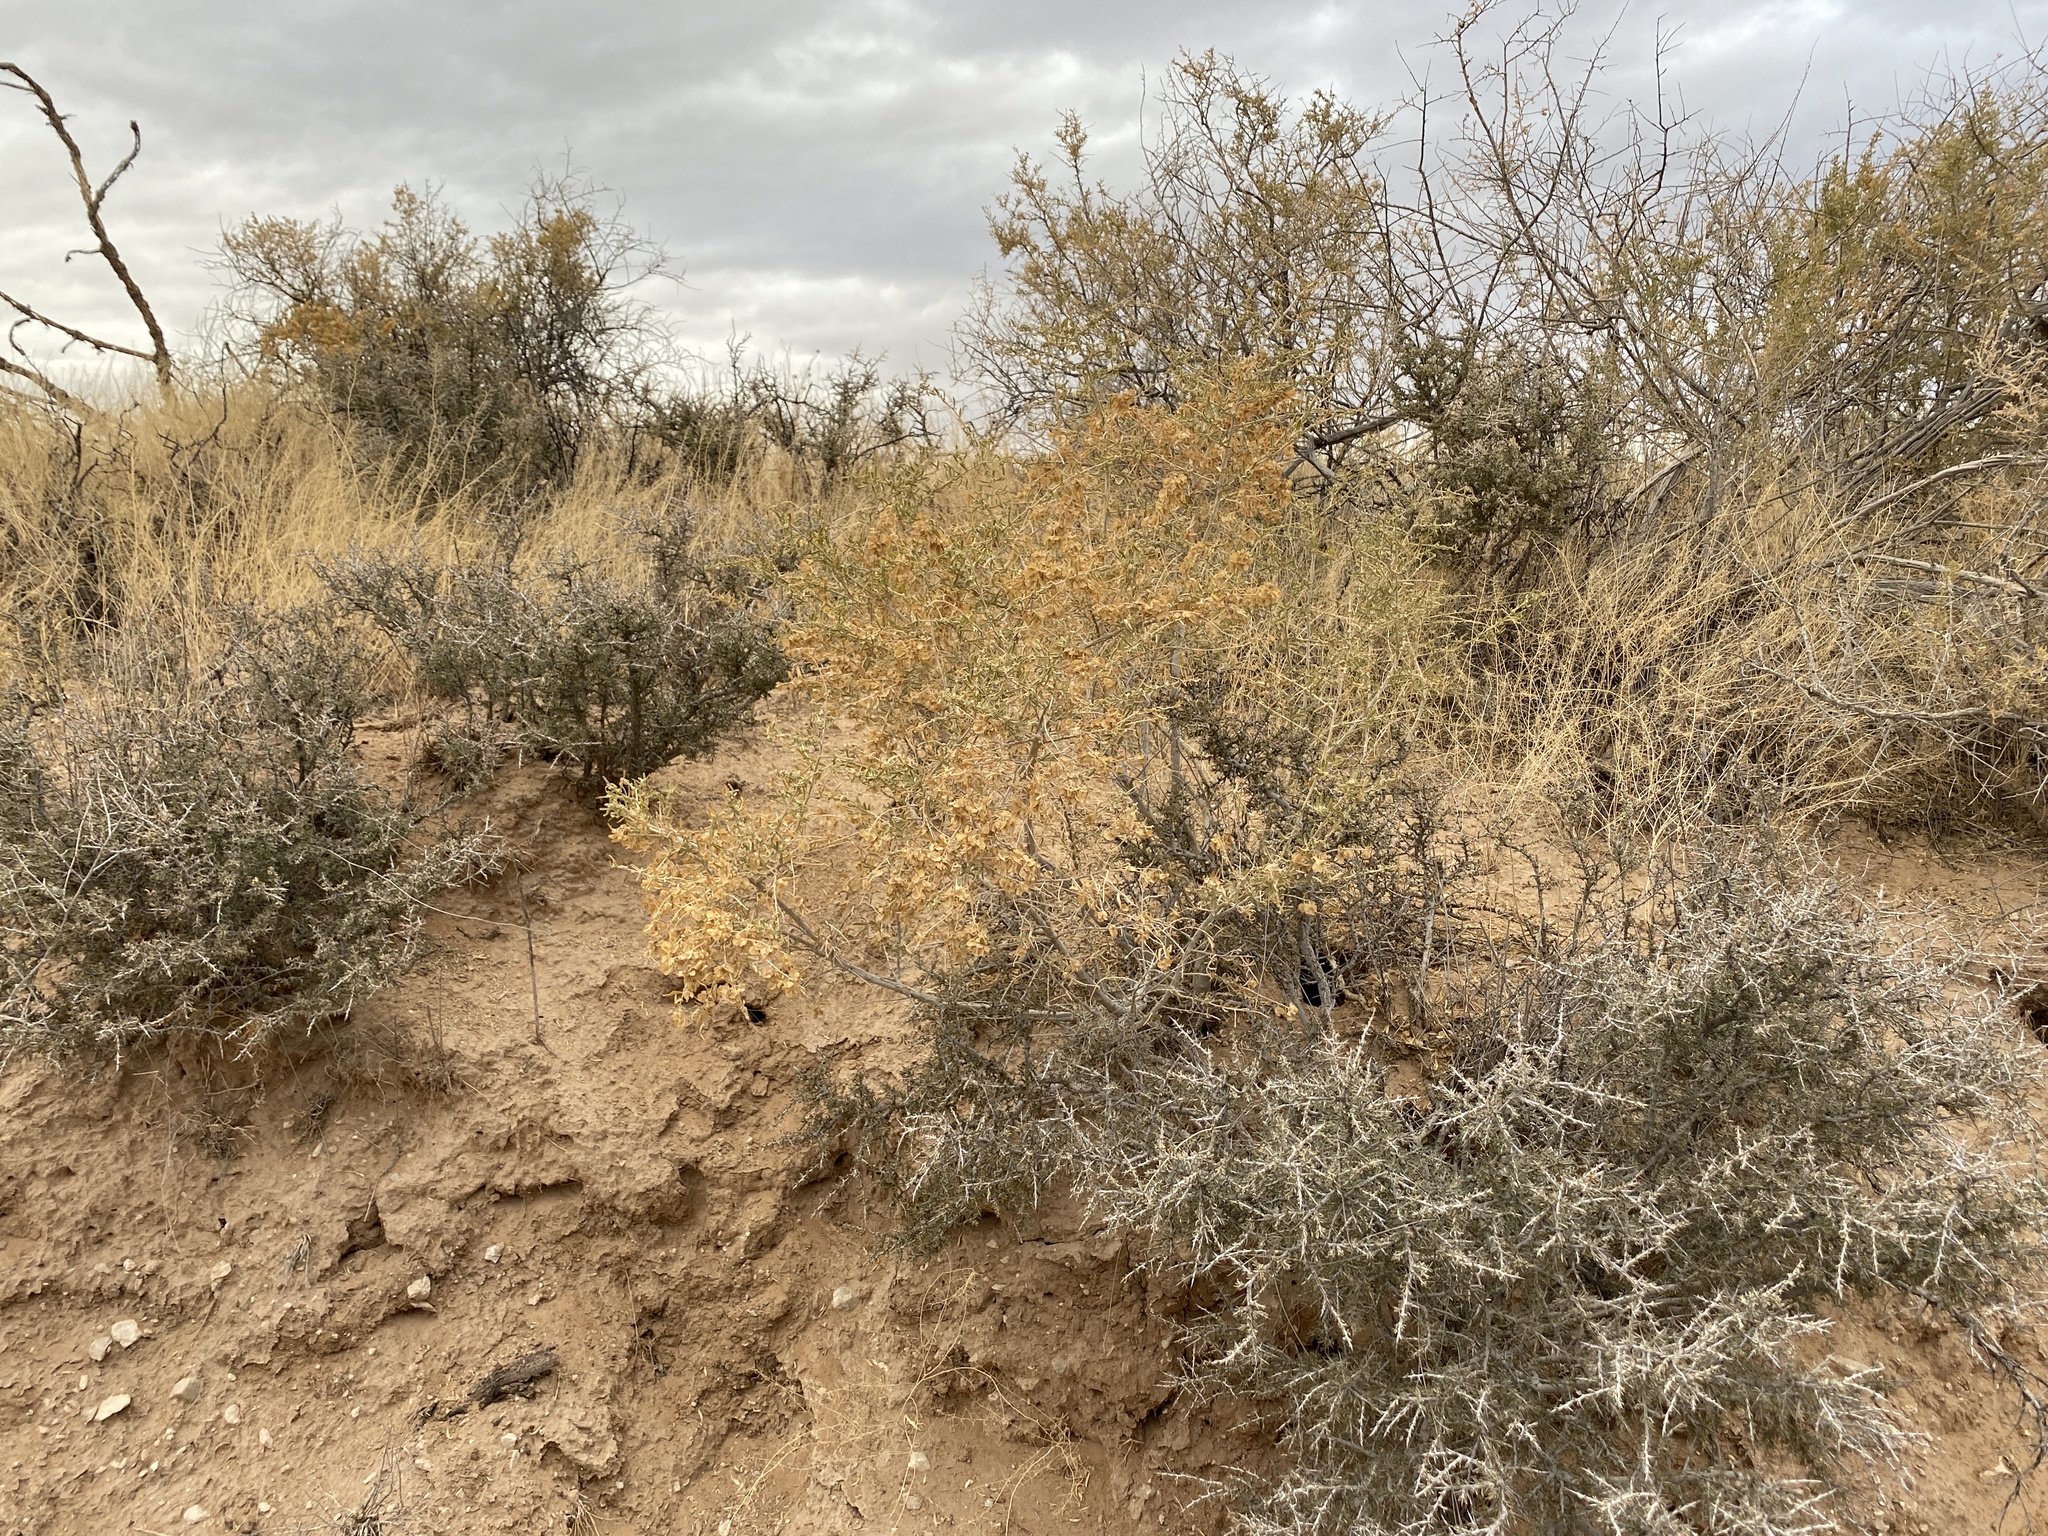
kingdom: Plantae
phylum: Tracheophyta
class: Magnoliopsida
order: Caryophyllales
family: Amaranthaceae
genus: Atriplex
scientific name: Atriplex canescens
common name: Four-wing saltbush
